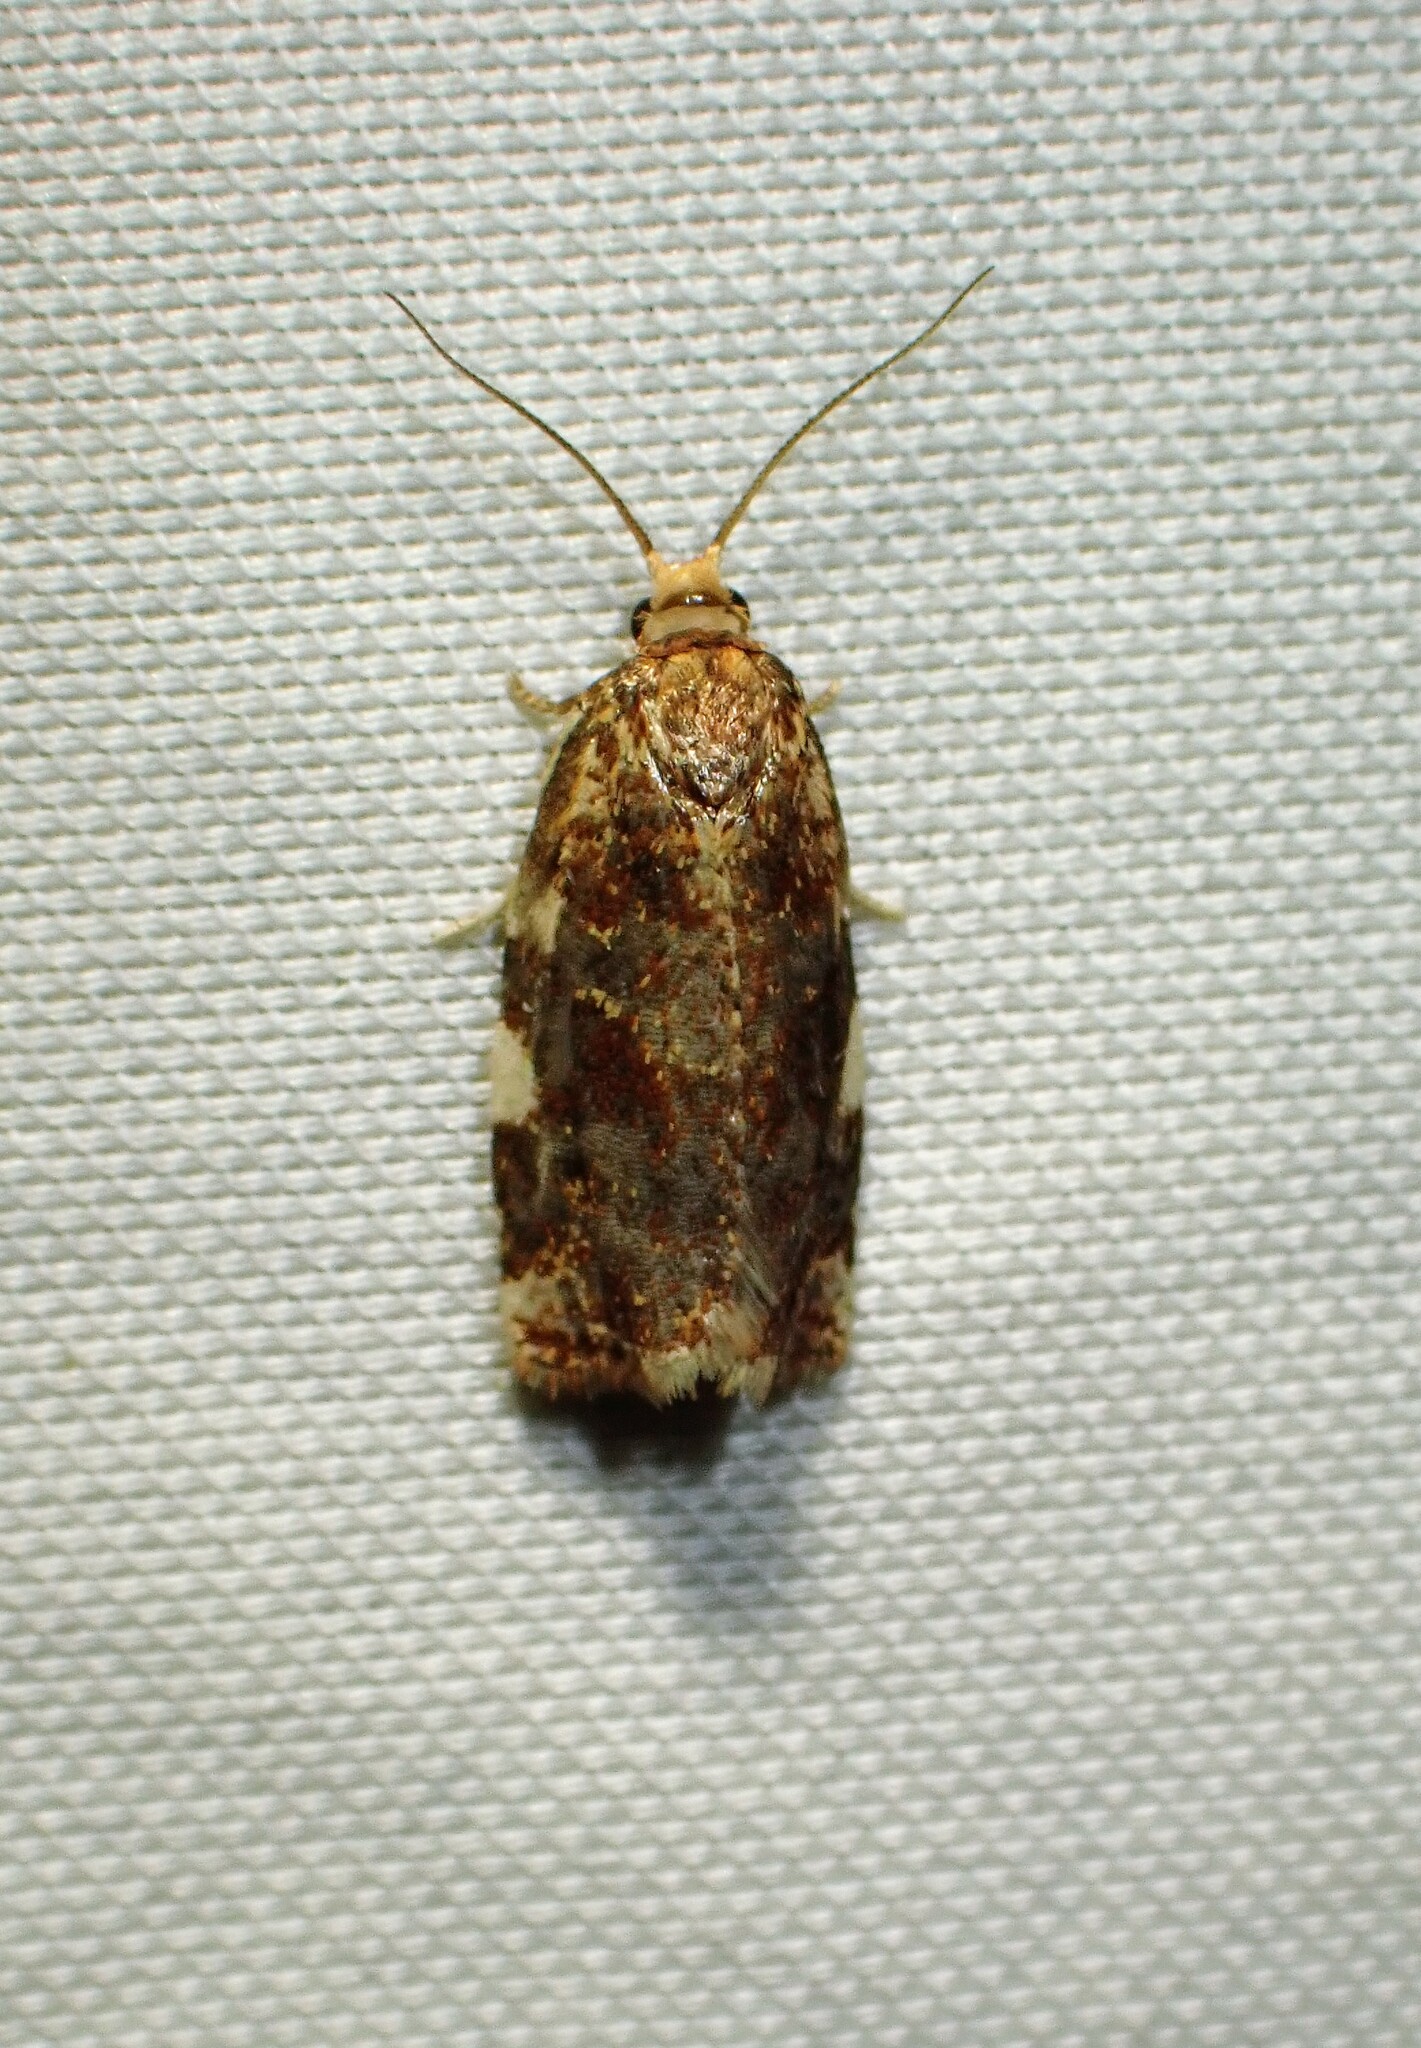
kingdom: Animalia
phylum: Arthropoda
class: Insecta
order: Lepidoptera
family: Tortricidae
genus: Archips
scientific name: Archips argyrospila
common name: Fruit-tree leafroller moth
